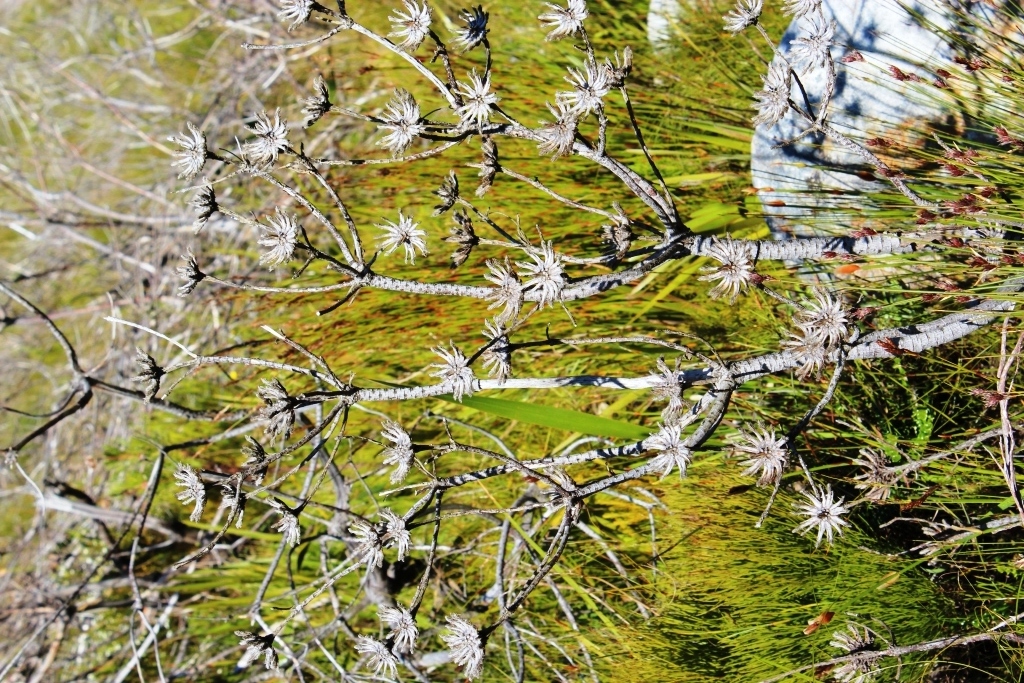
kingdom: Plantae
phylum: Tracheophyta
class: Magnoliopsida
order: Proteales
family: Proteaceae
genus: Aulax
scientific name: Aulax cancellata
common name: Channel-leaf featherbush
